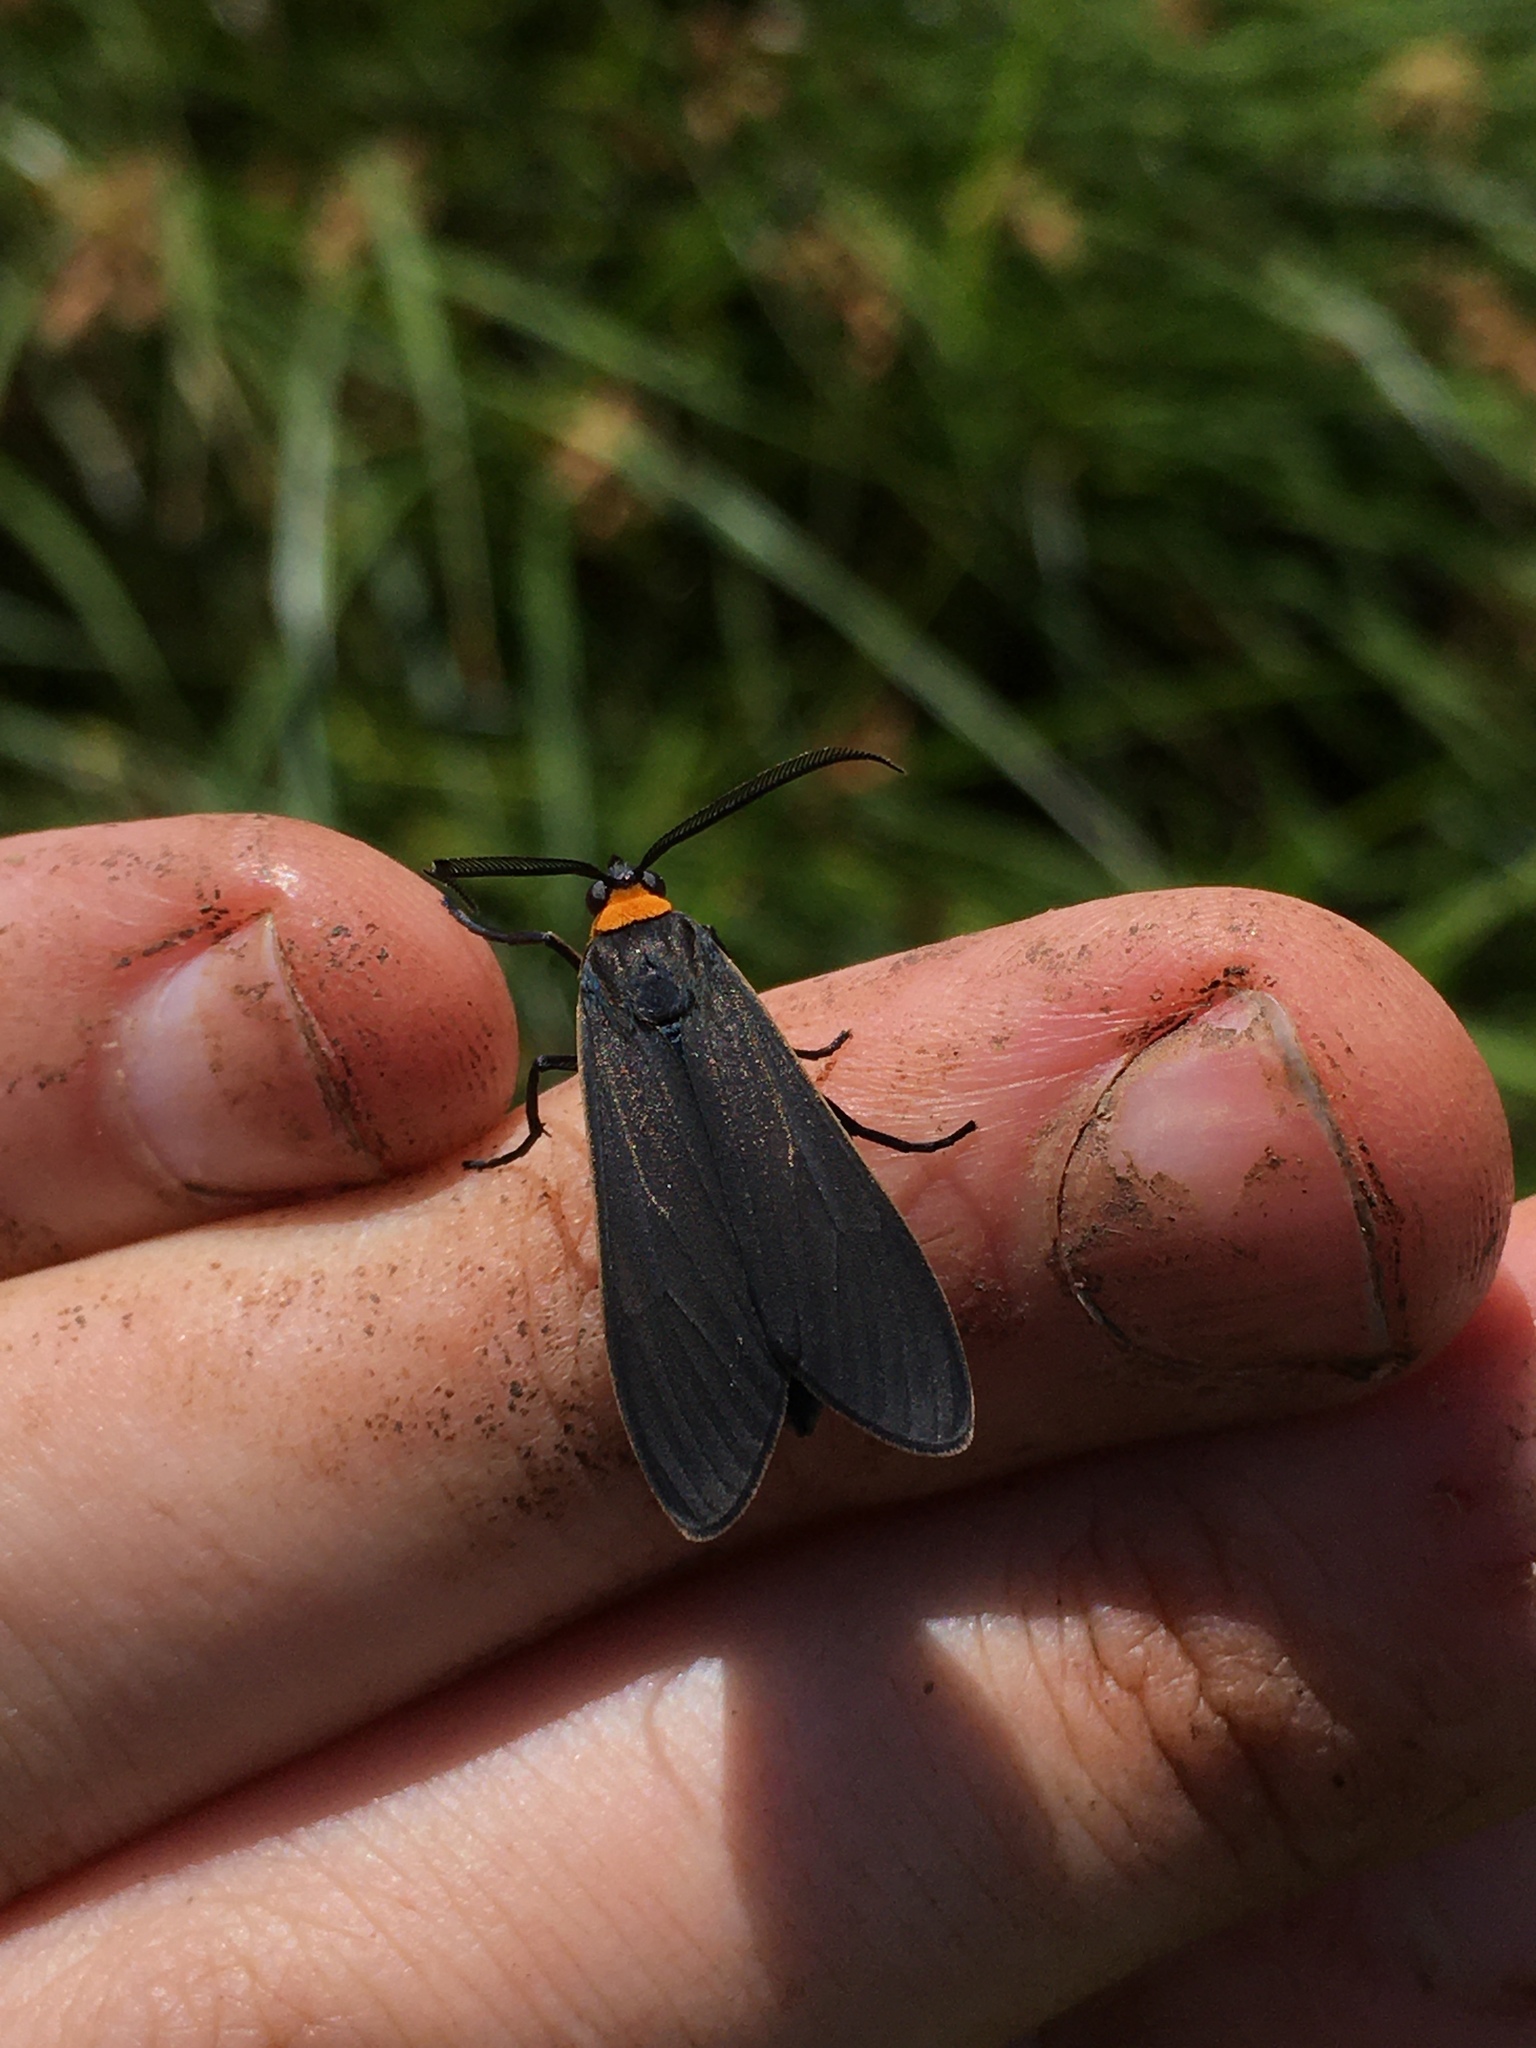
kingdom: Animalia
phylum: Arthropoda
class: Insecta
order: Lepidoptera
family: Erebidae
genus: Cisseps
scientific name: Cisseps fulvicollis
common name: Yellow-collared scape moth
